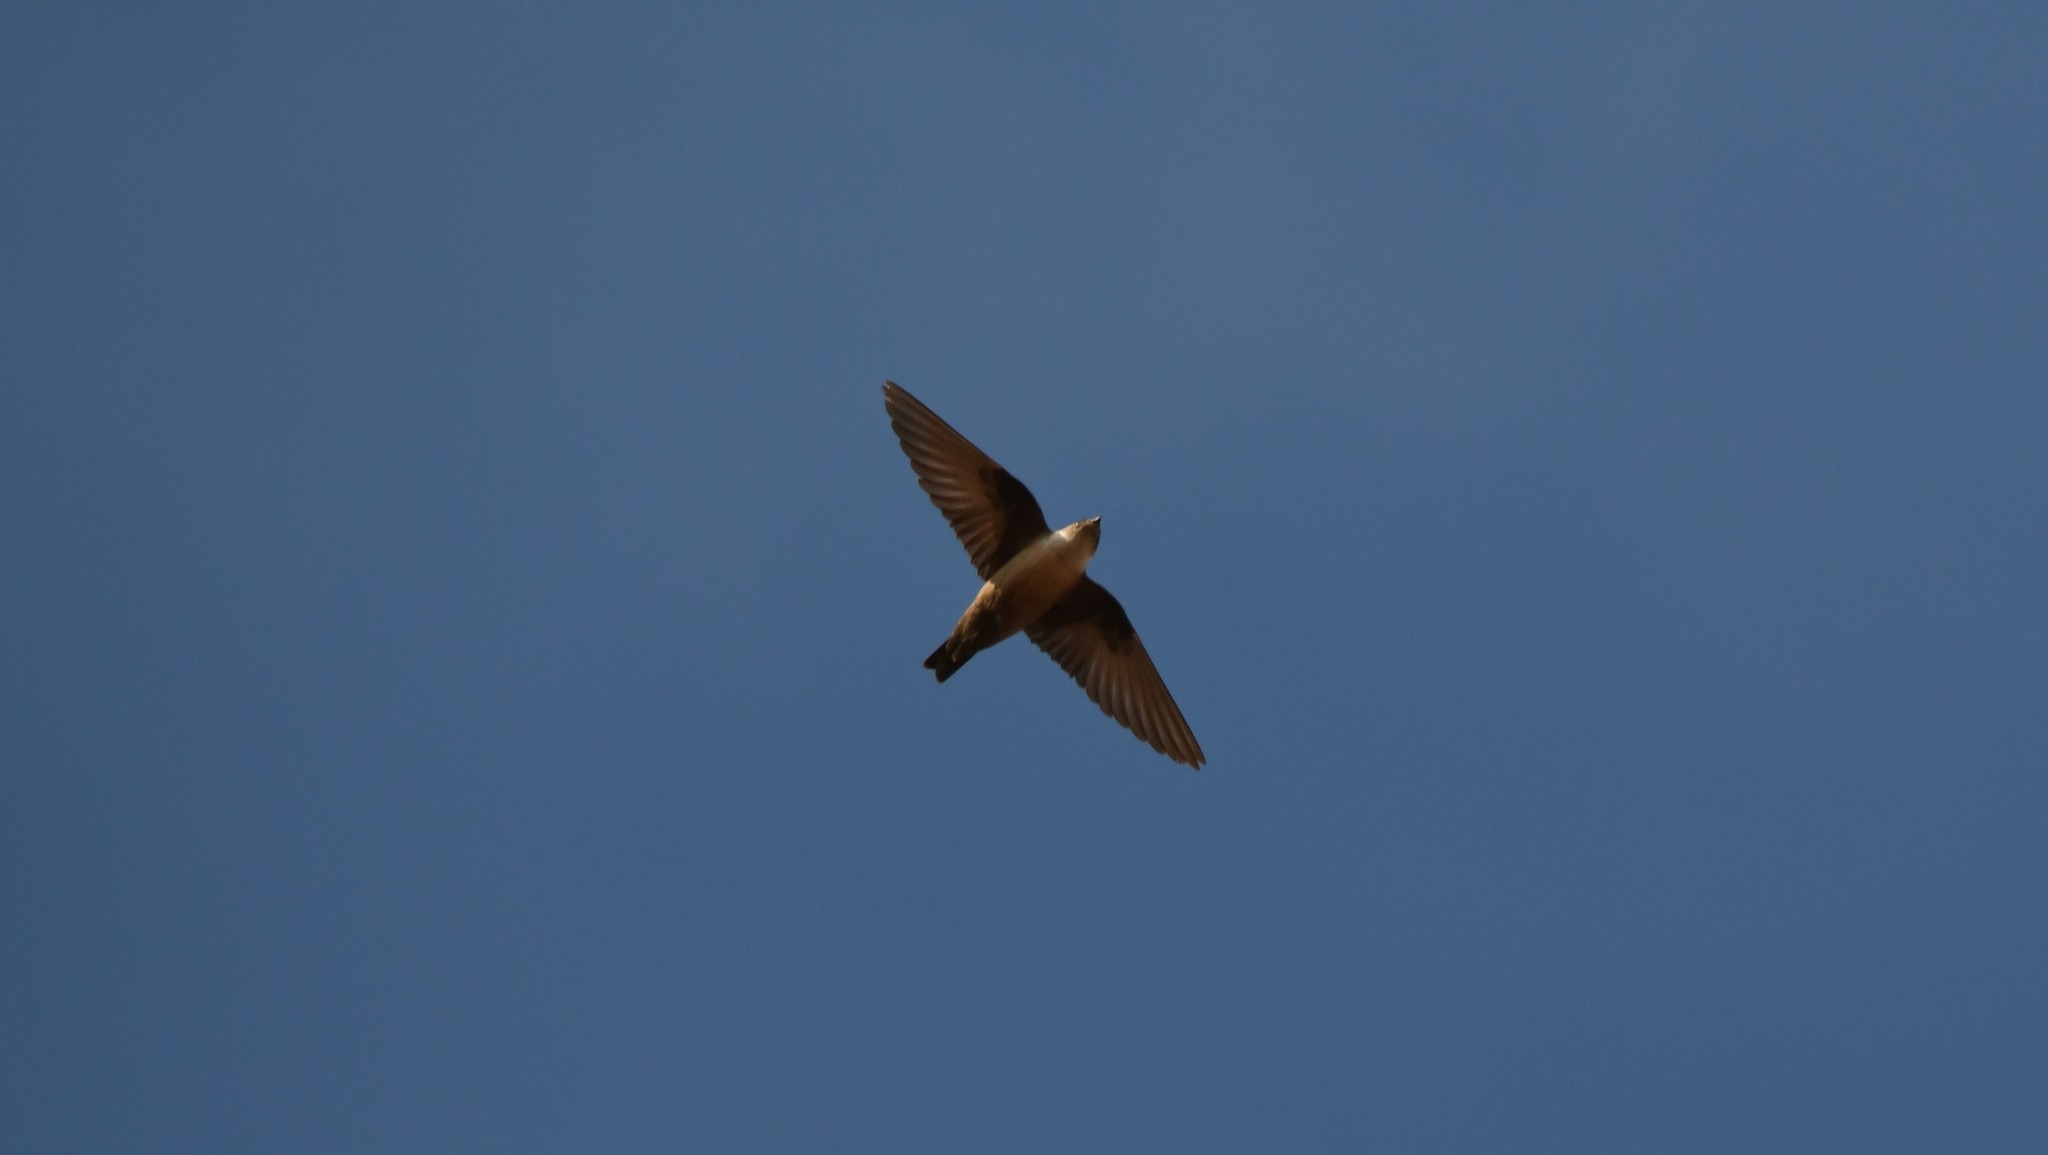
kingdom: Animalia
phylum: Chordata
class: Aves
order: Passeriformes
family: Hirundinidae
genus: Ptyonoprogne
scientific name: Ptyonoprogne rupestris
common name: Eurasian crag martin
